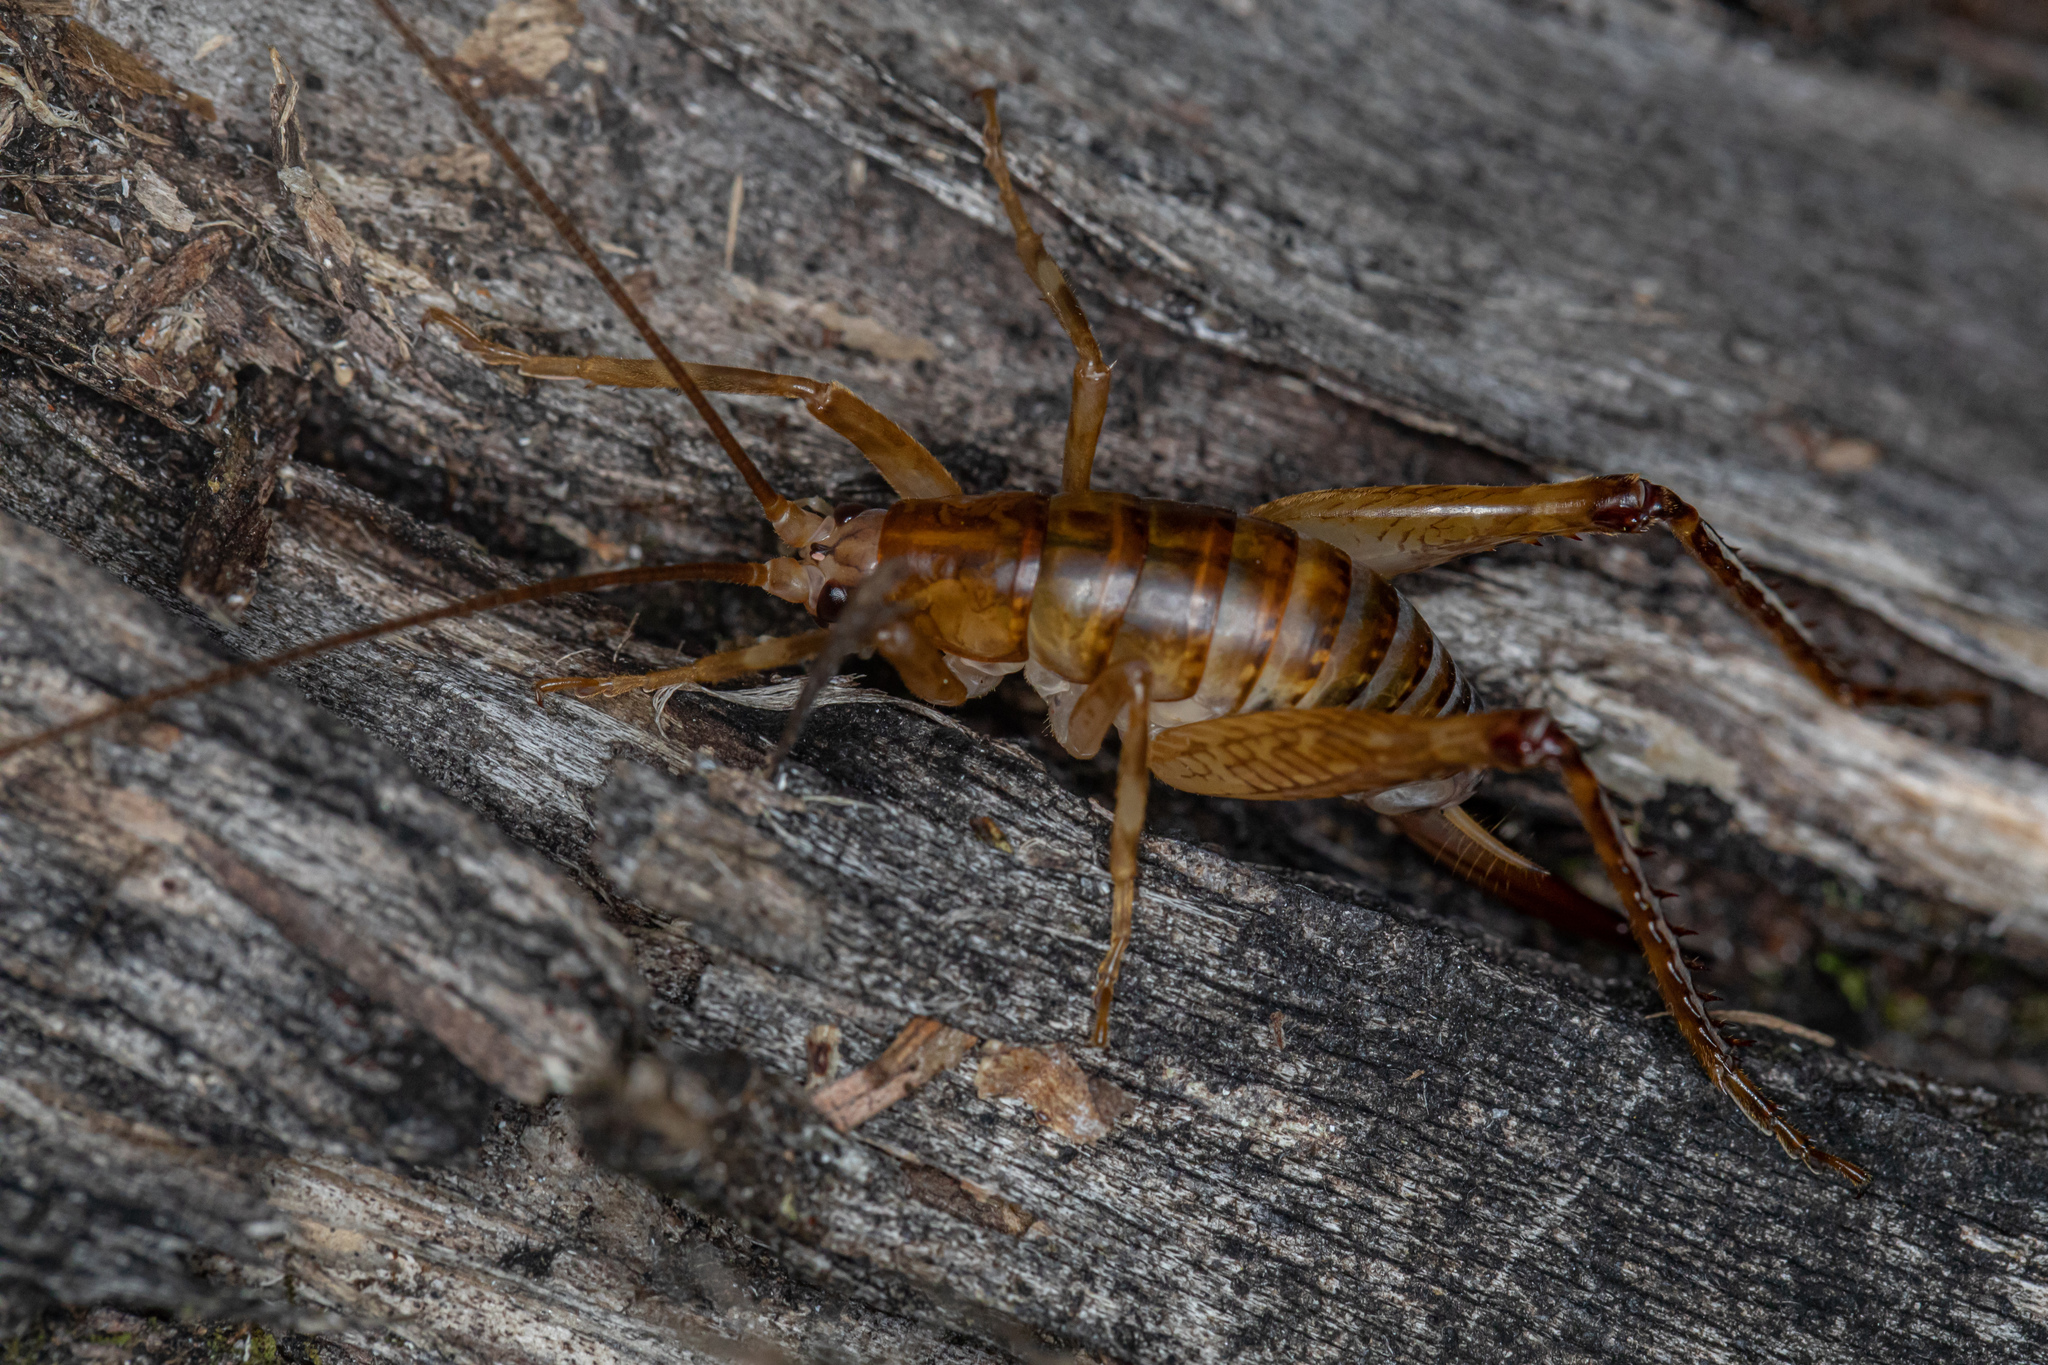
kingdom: Animalia
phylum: Arthropoda
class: Insecta
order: Orthoptera
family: Rhaphidophoridae
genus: Talitropsis
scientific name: Talitropsis sedilloti
